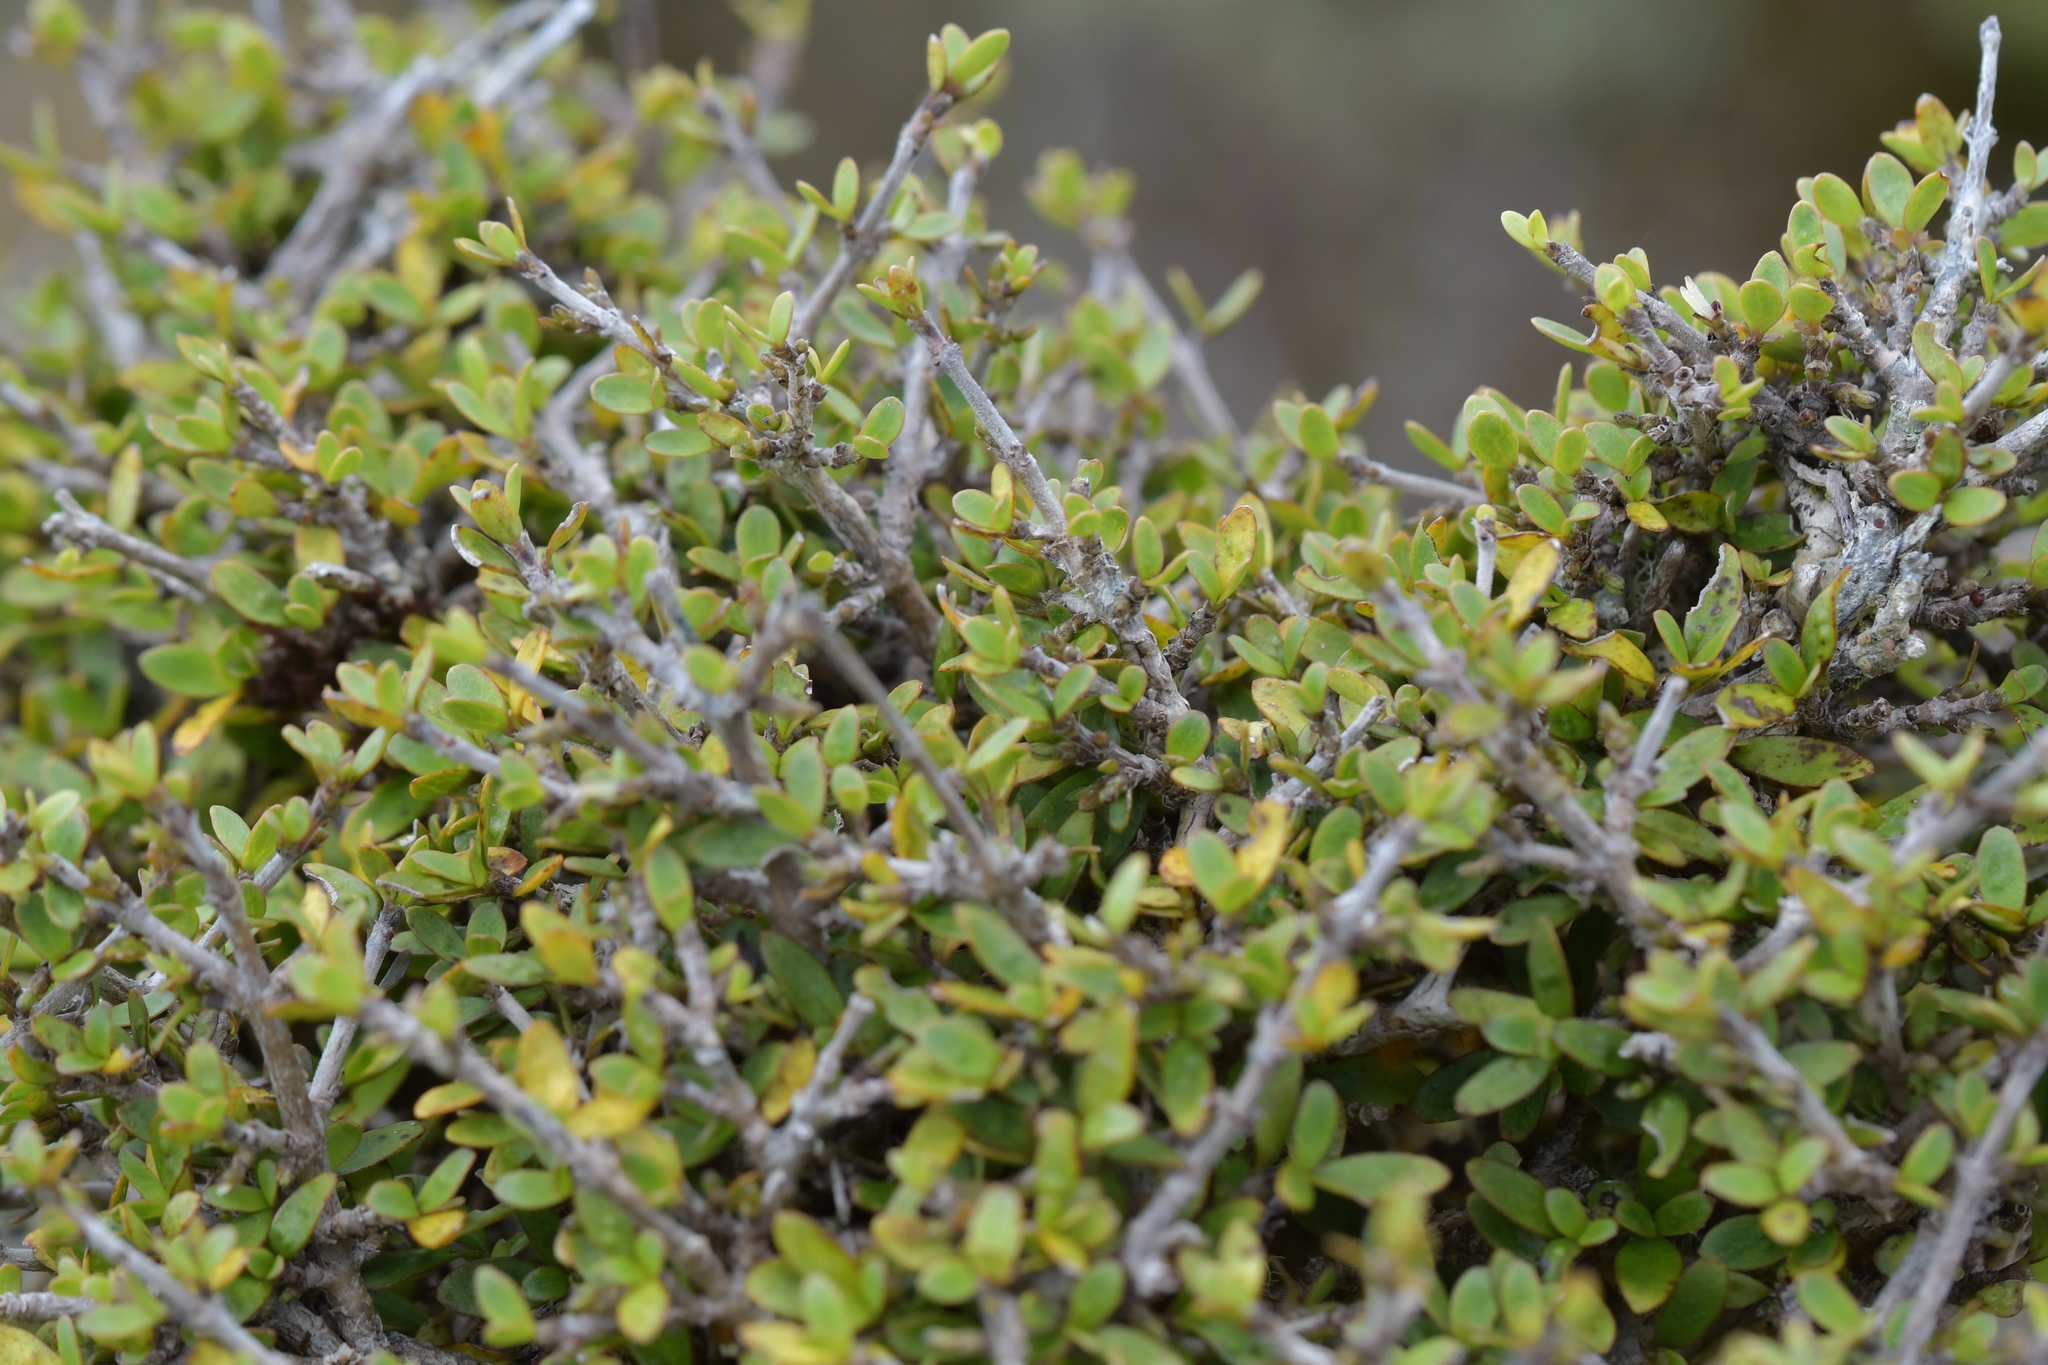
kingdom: Plantae
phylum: Tracheophyta
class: Magnoliopsida
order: Gentianales
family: Rubiaceae
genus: Coprosma
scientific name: Coprosma dumosa
